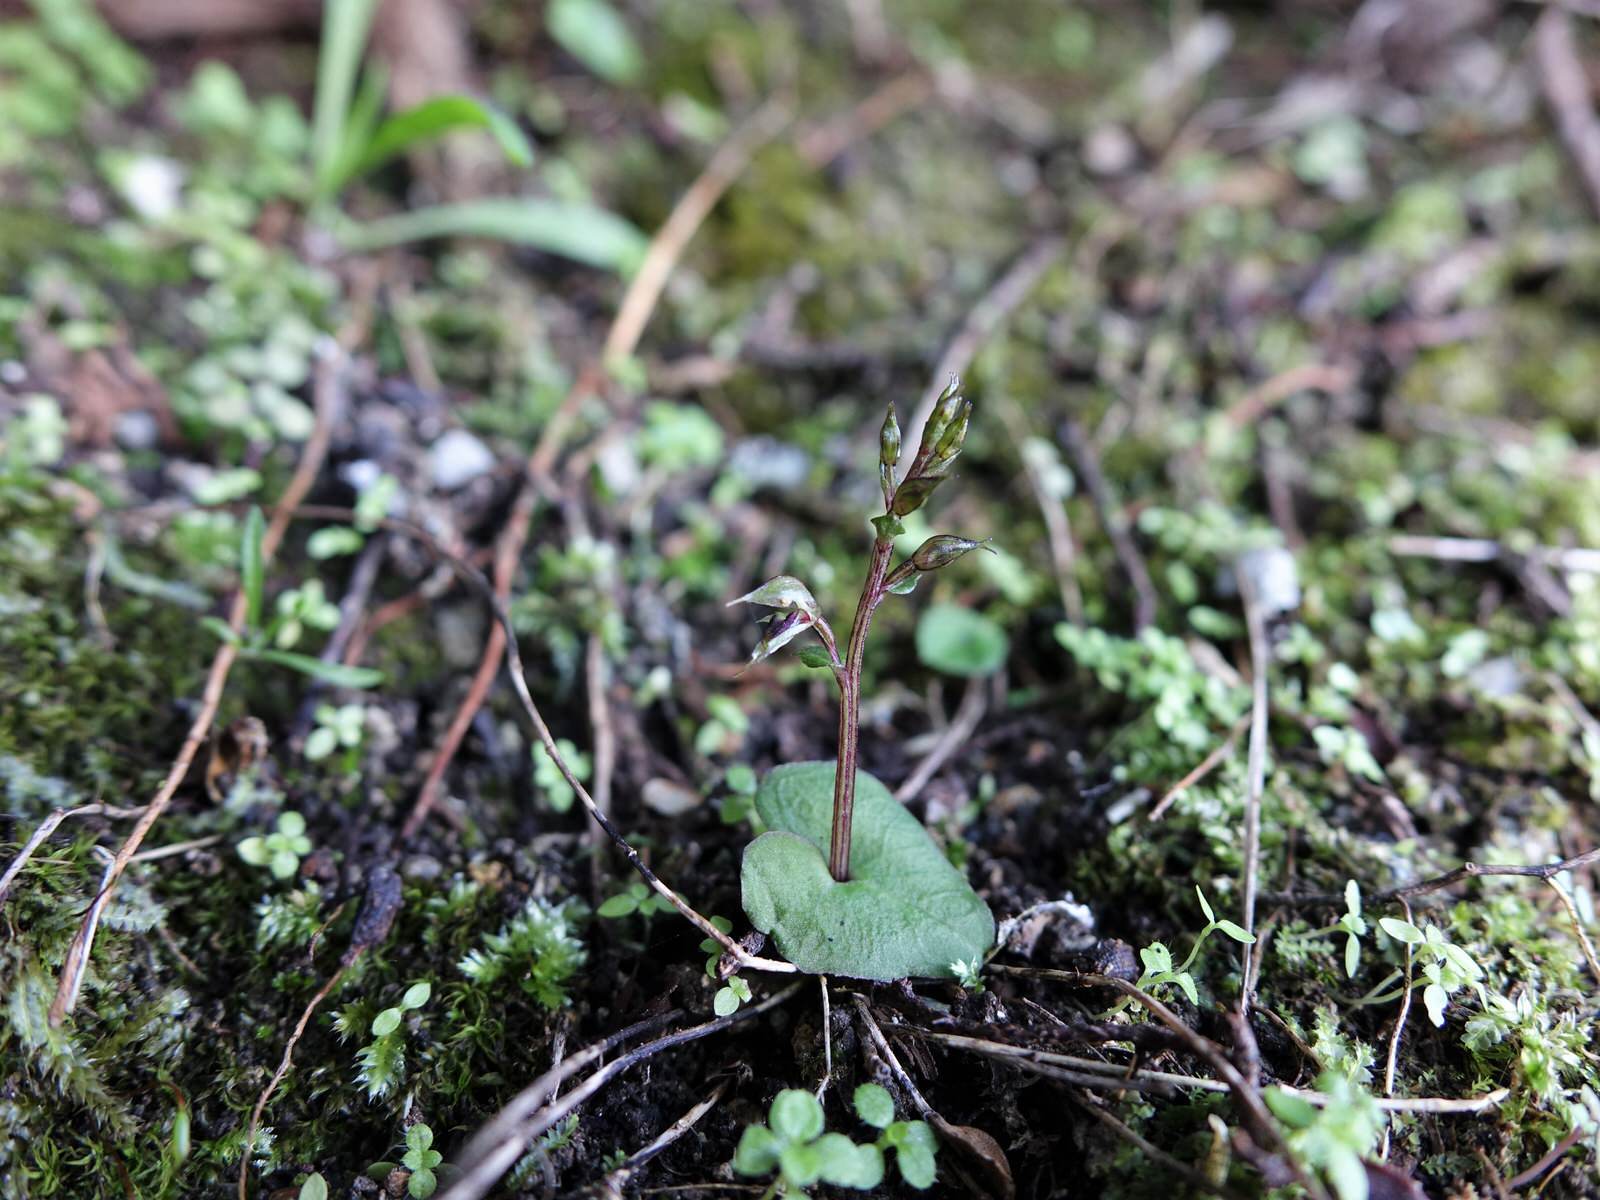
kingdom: Plantae
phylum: Tracheophyta
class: Liliopsida
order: Asparagales
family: Orchidaceae
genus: Acianthus
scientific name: Acianthus sinclairii
